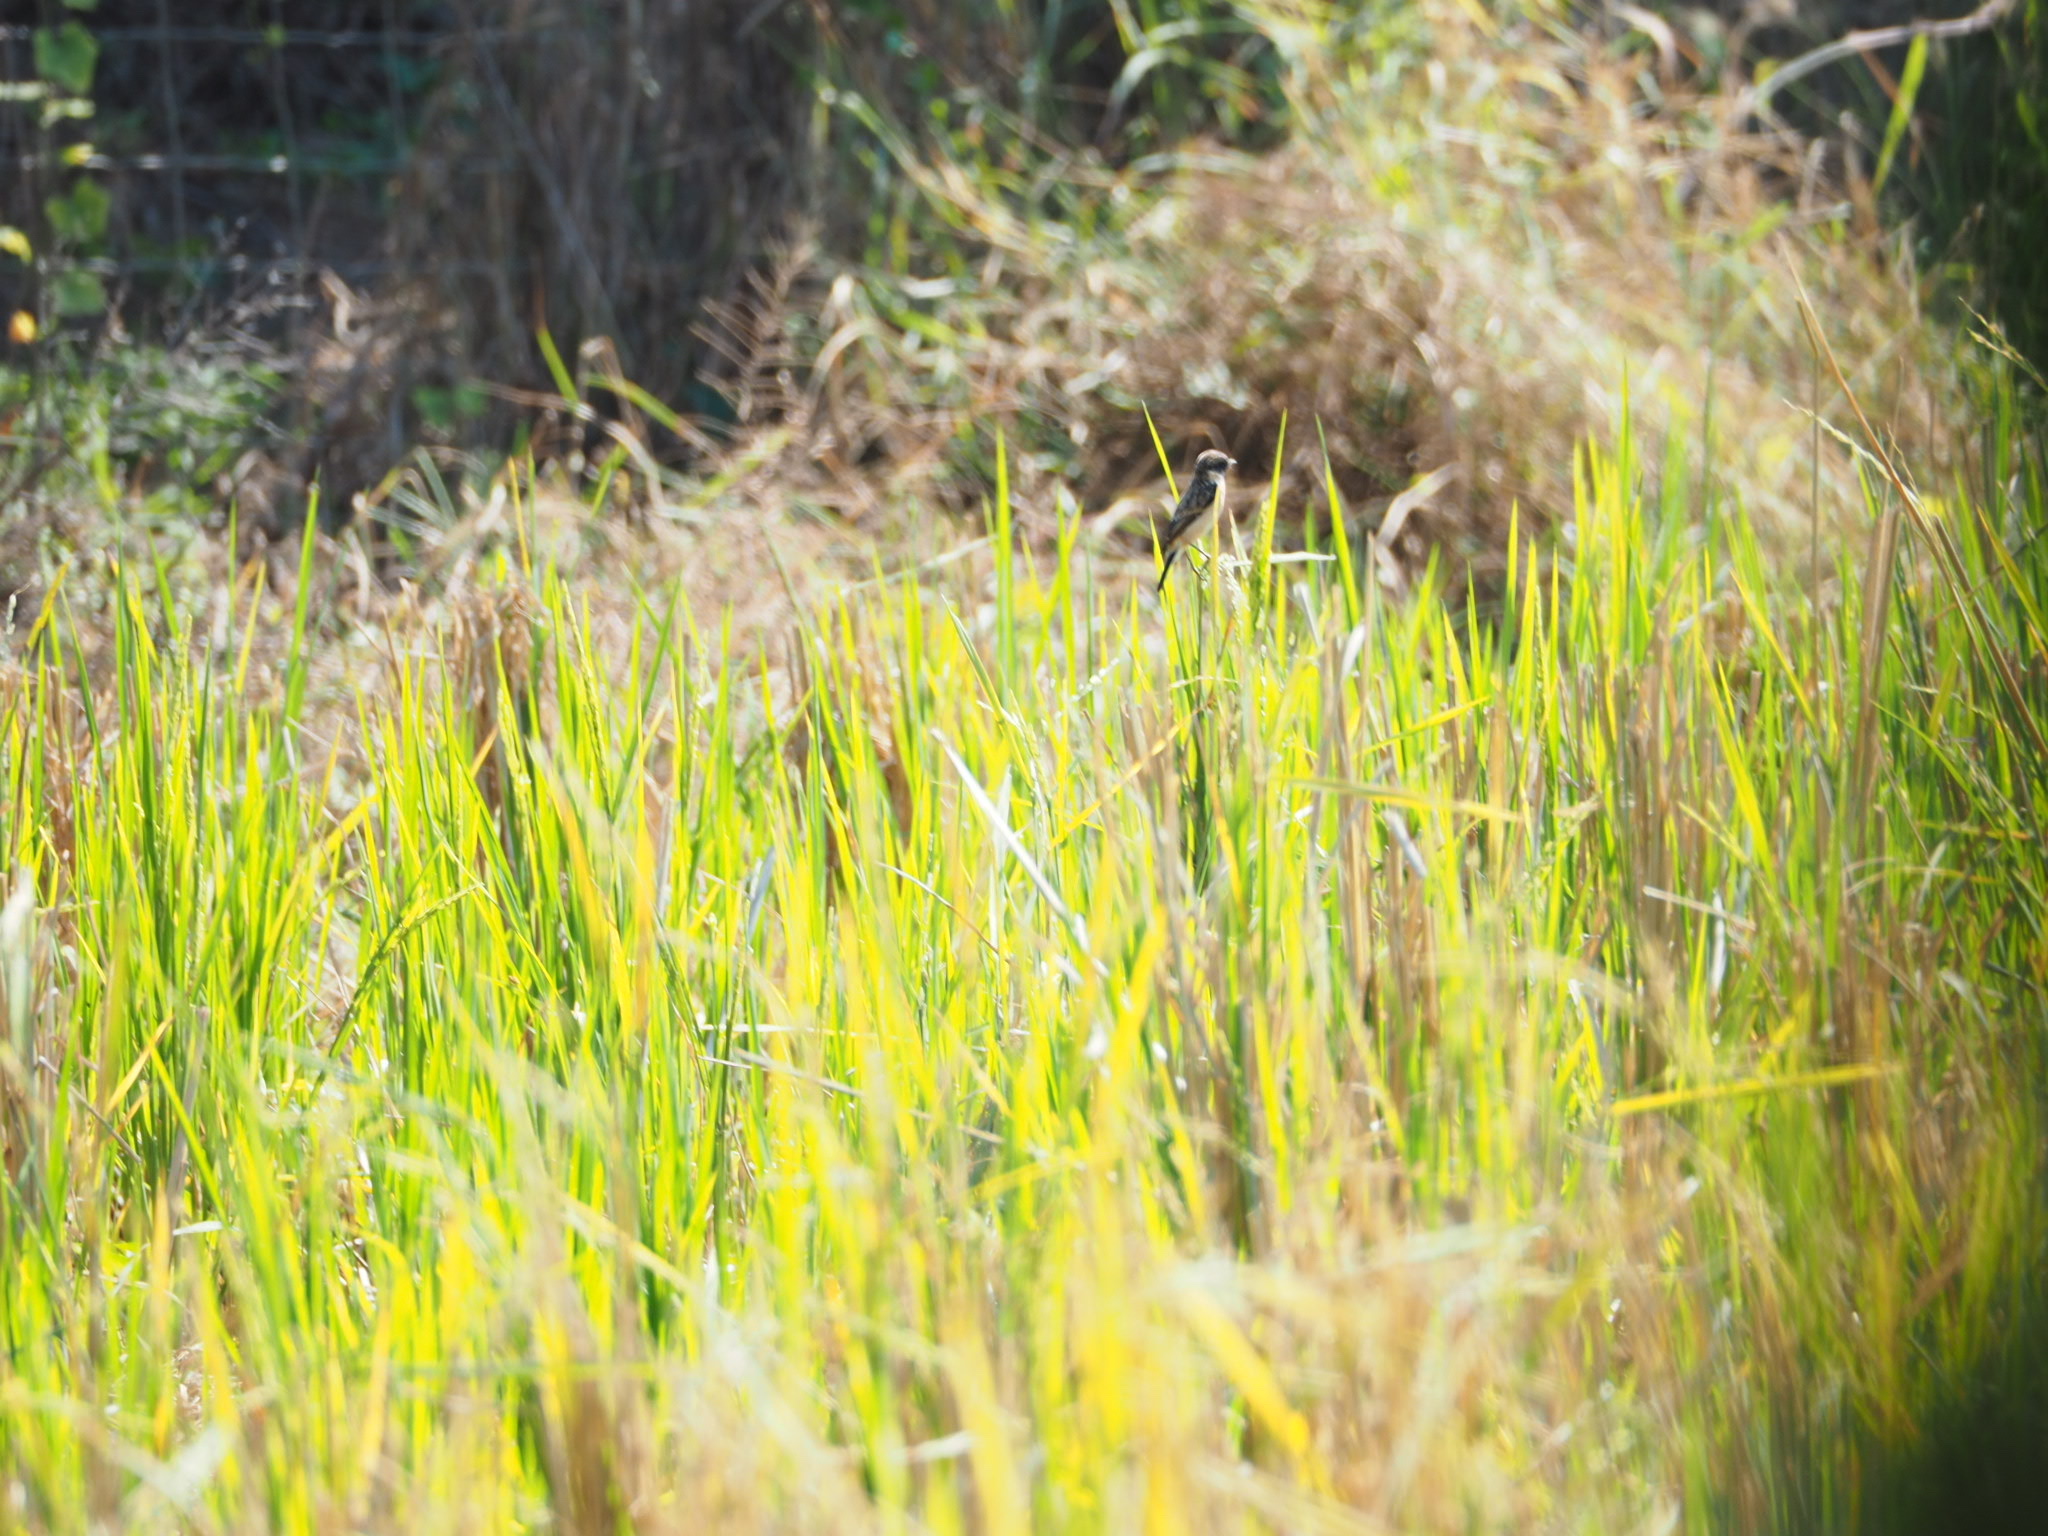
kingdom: Animalia
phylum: Chordata
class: Aves
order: Passeriformes
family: Muscicapidae
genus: Saxicola
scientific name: Saxicola stejnegeri
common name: Stejneger's stonechat
